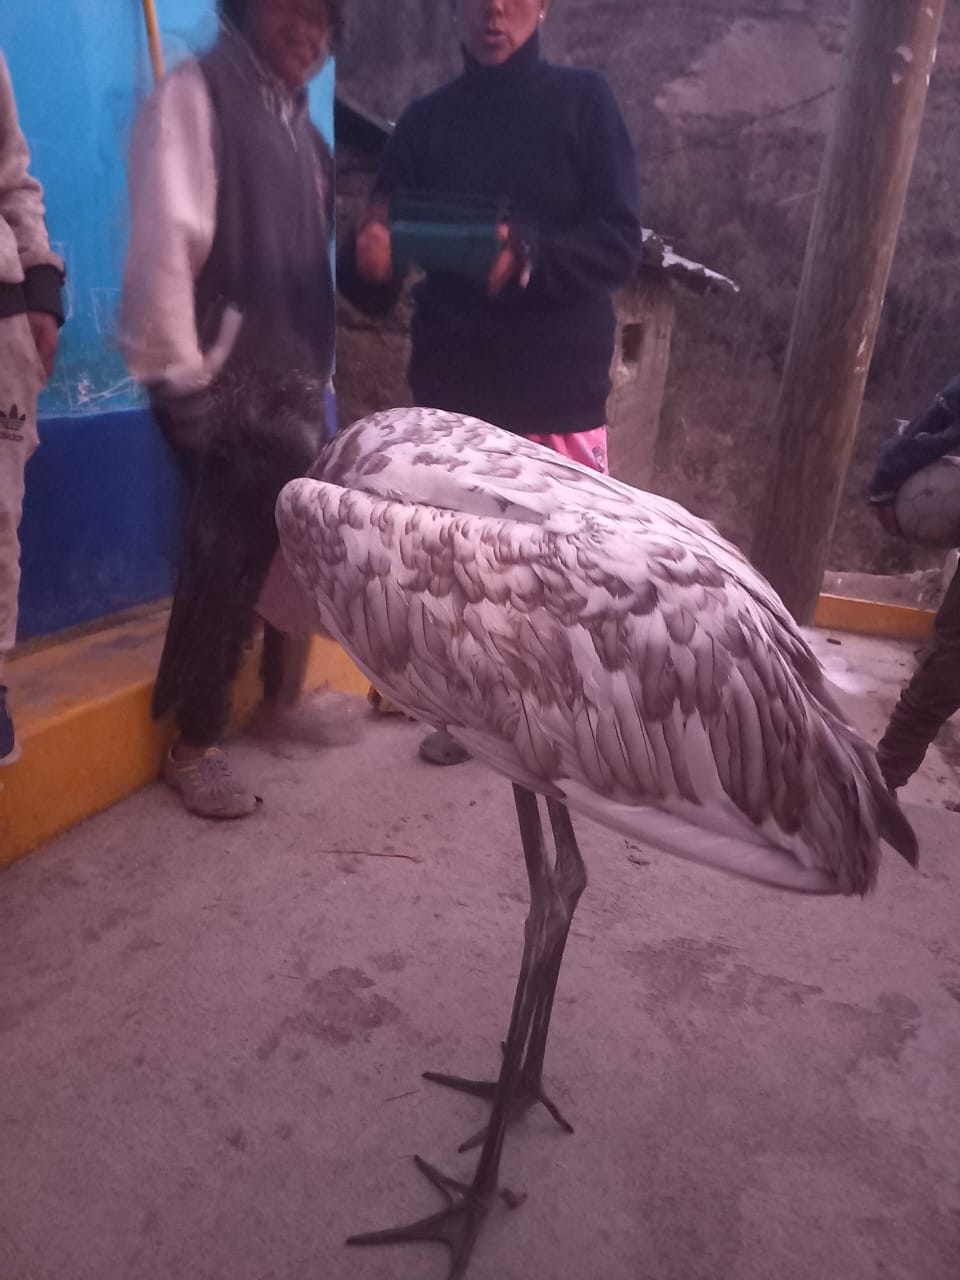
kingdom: Animalia
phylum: Chordata
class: Aves
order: Ciconiiformes
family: Ciconiidae
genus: Jabiru
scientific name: Jabiru mycteria
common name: Jabiru
